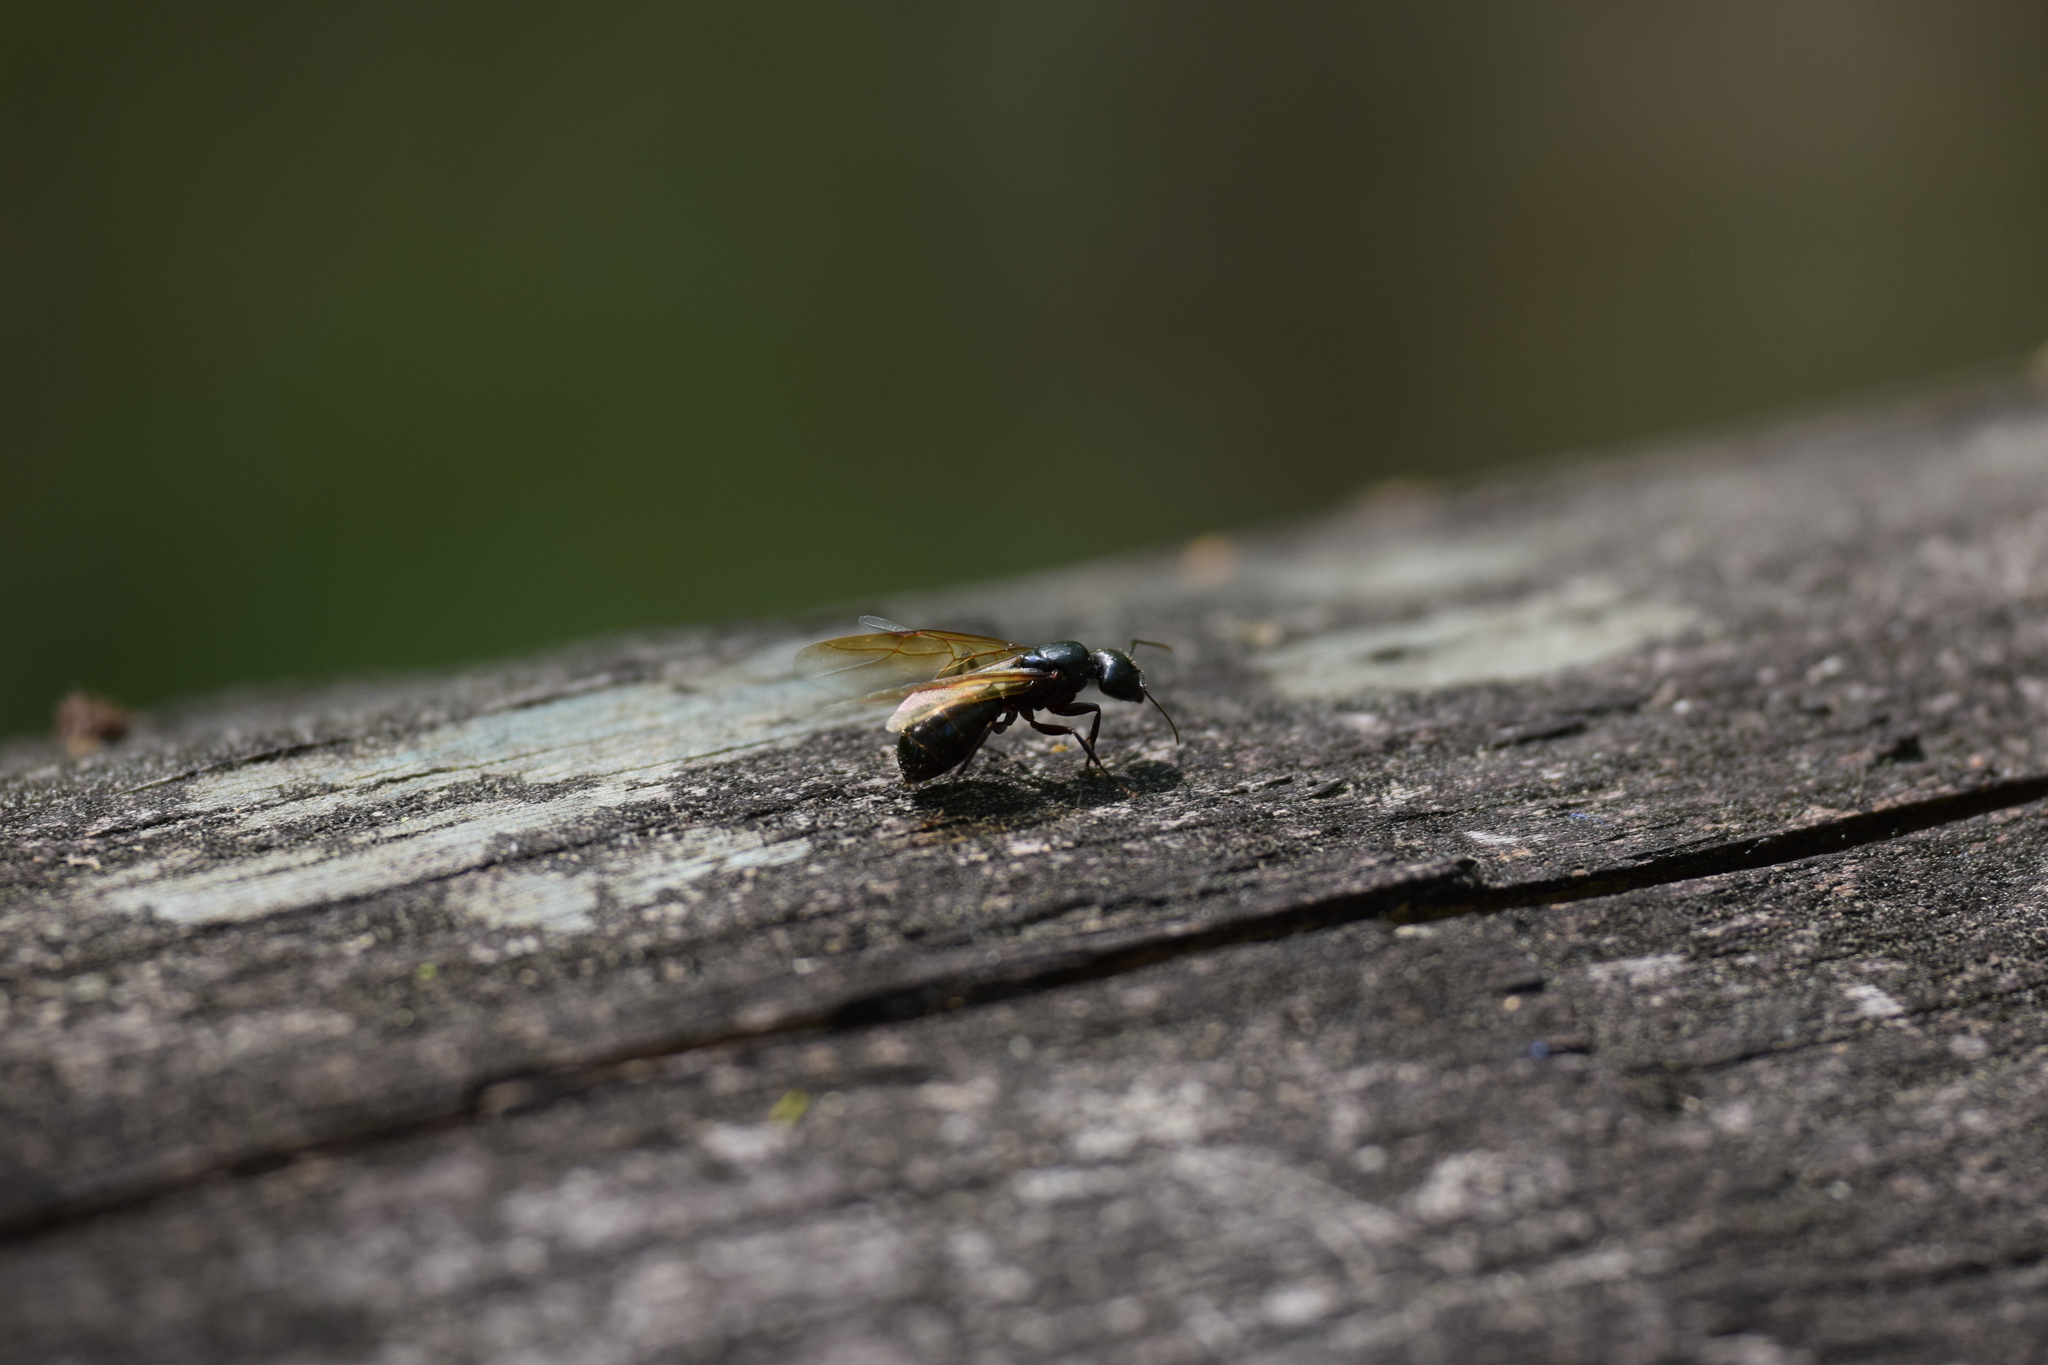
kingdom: Animalia
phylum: Arthropoda
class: Insecta
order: Hymenoptera
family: Formicidae
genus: Camponotus
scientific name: Camponotus pennsylvanicus
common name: Black carpenter ant
